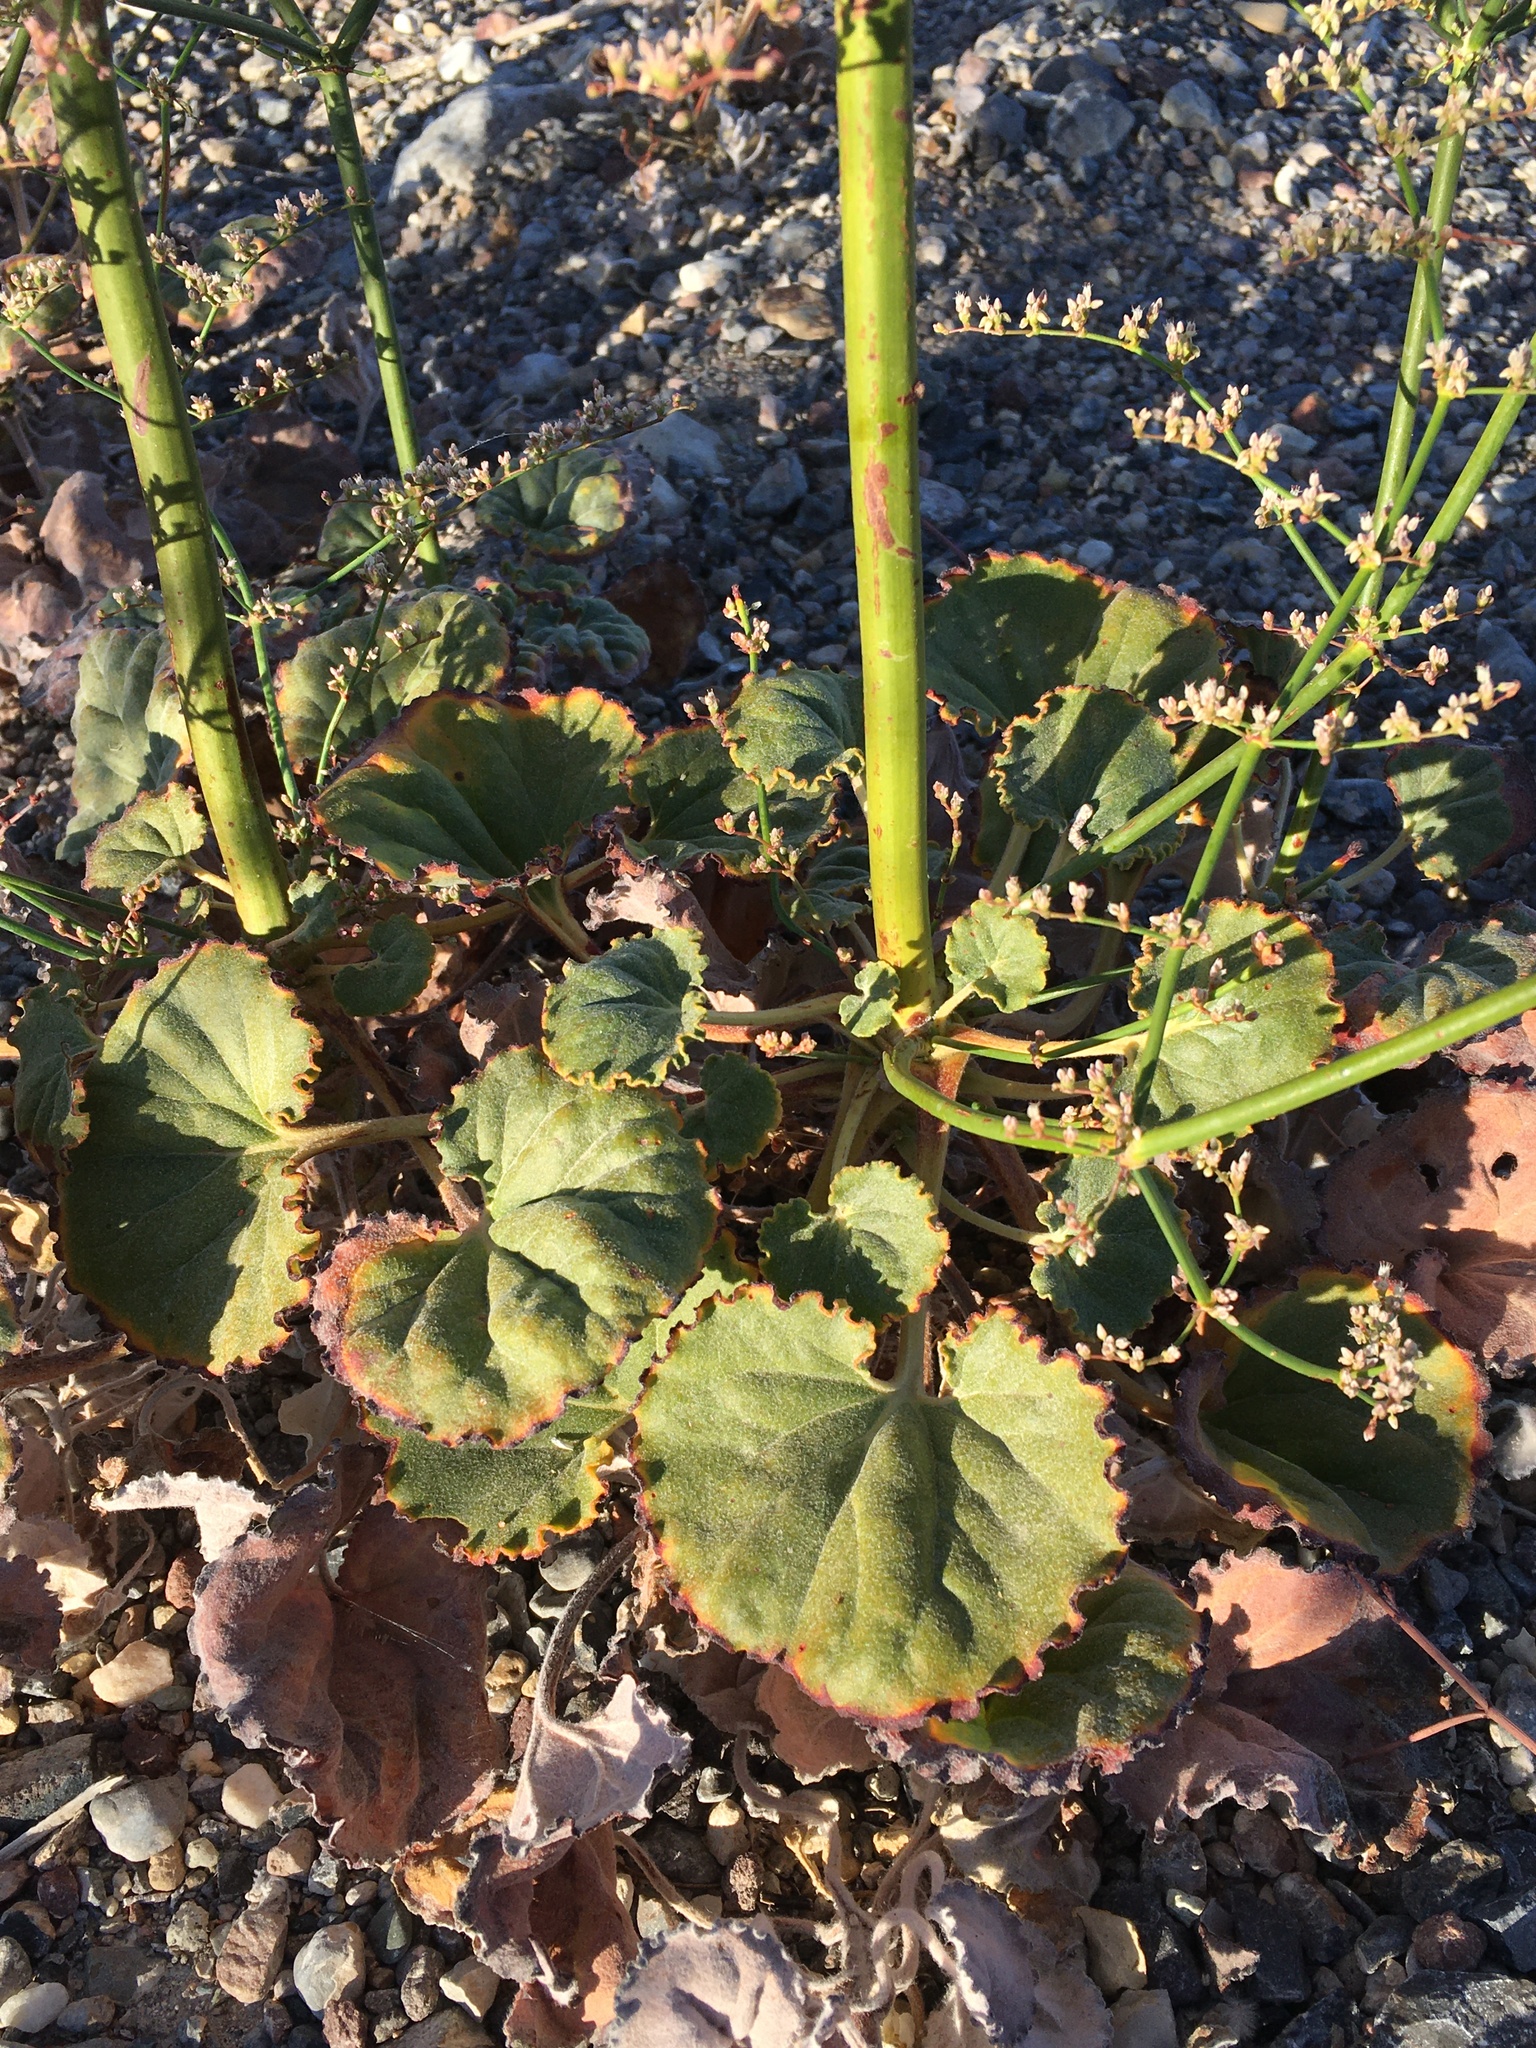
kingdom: Plantae
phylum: Tracheophyta
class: Magnoliopsida
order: Caryophyllales
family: Polygonaceae
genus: Eriogonum
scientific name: Eriogonum hoffmannii
